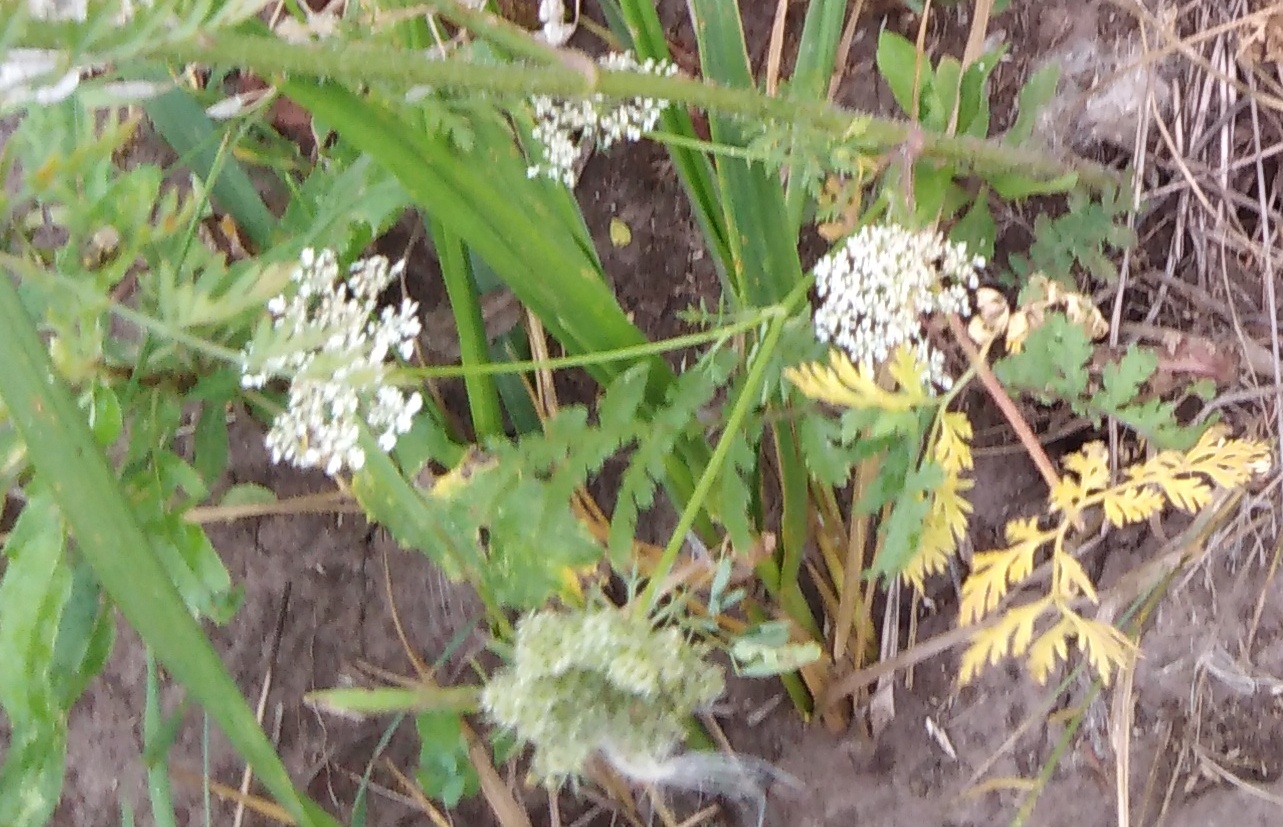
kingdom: Plantae
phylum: Tracheophyta
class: Magnoliopsida
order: Apiales
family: Apiaceae
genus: Daucus
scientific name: Daucus carota
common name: Wild carrot
